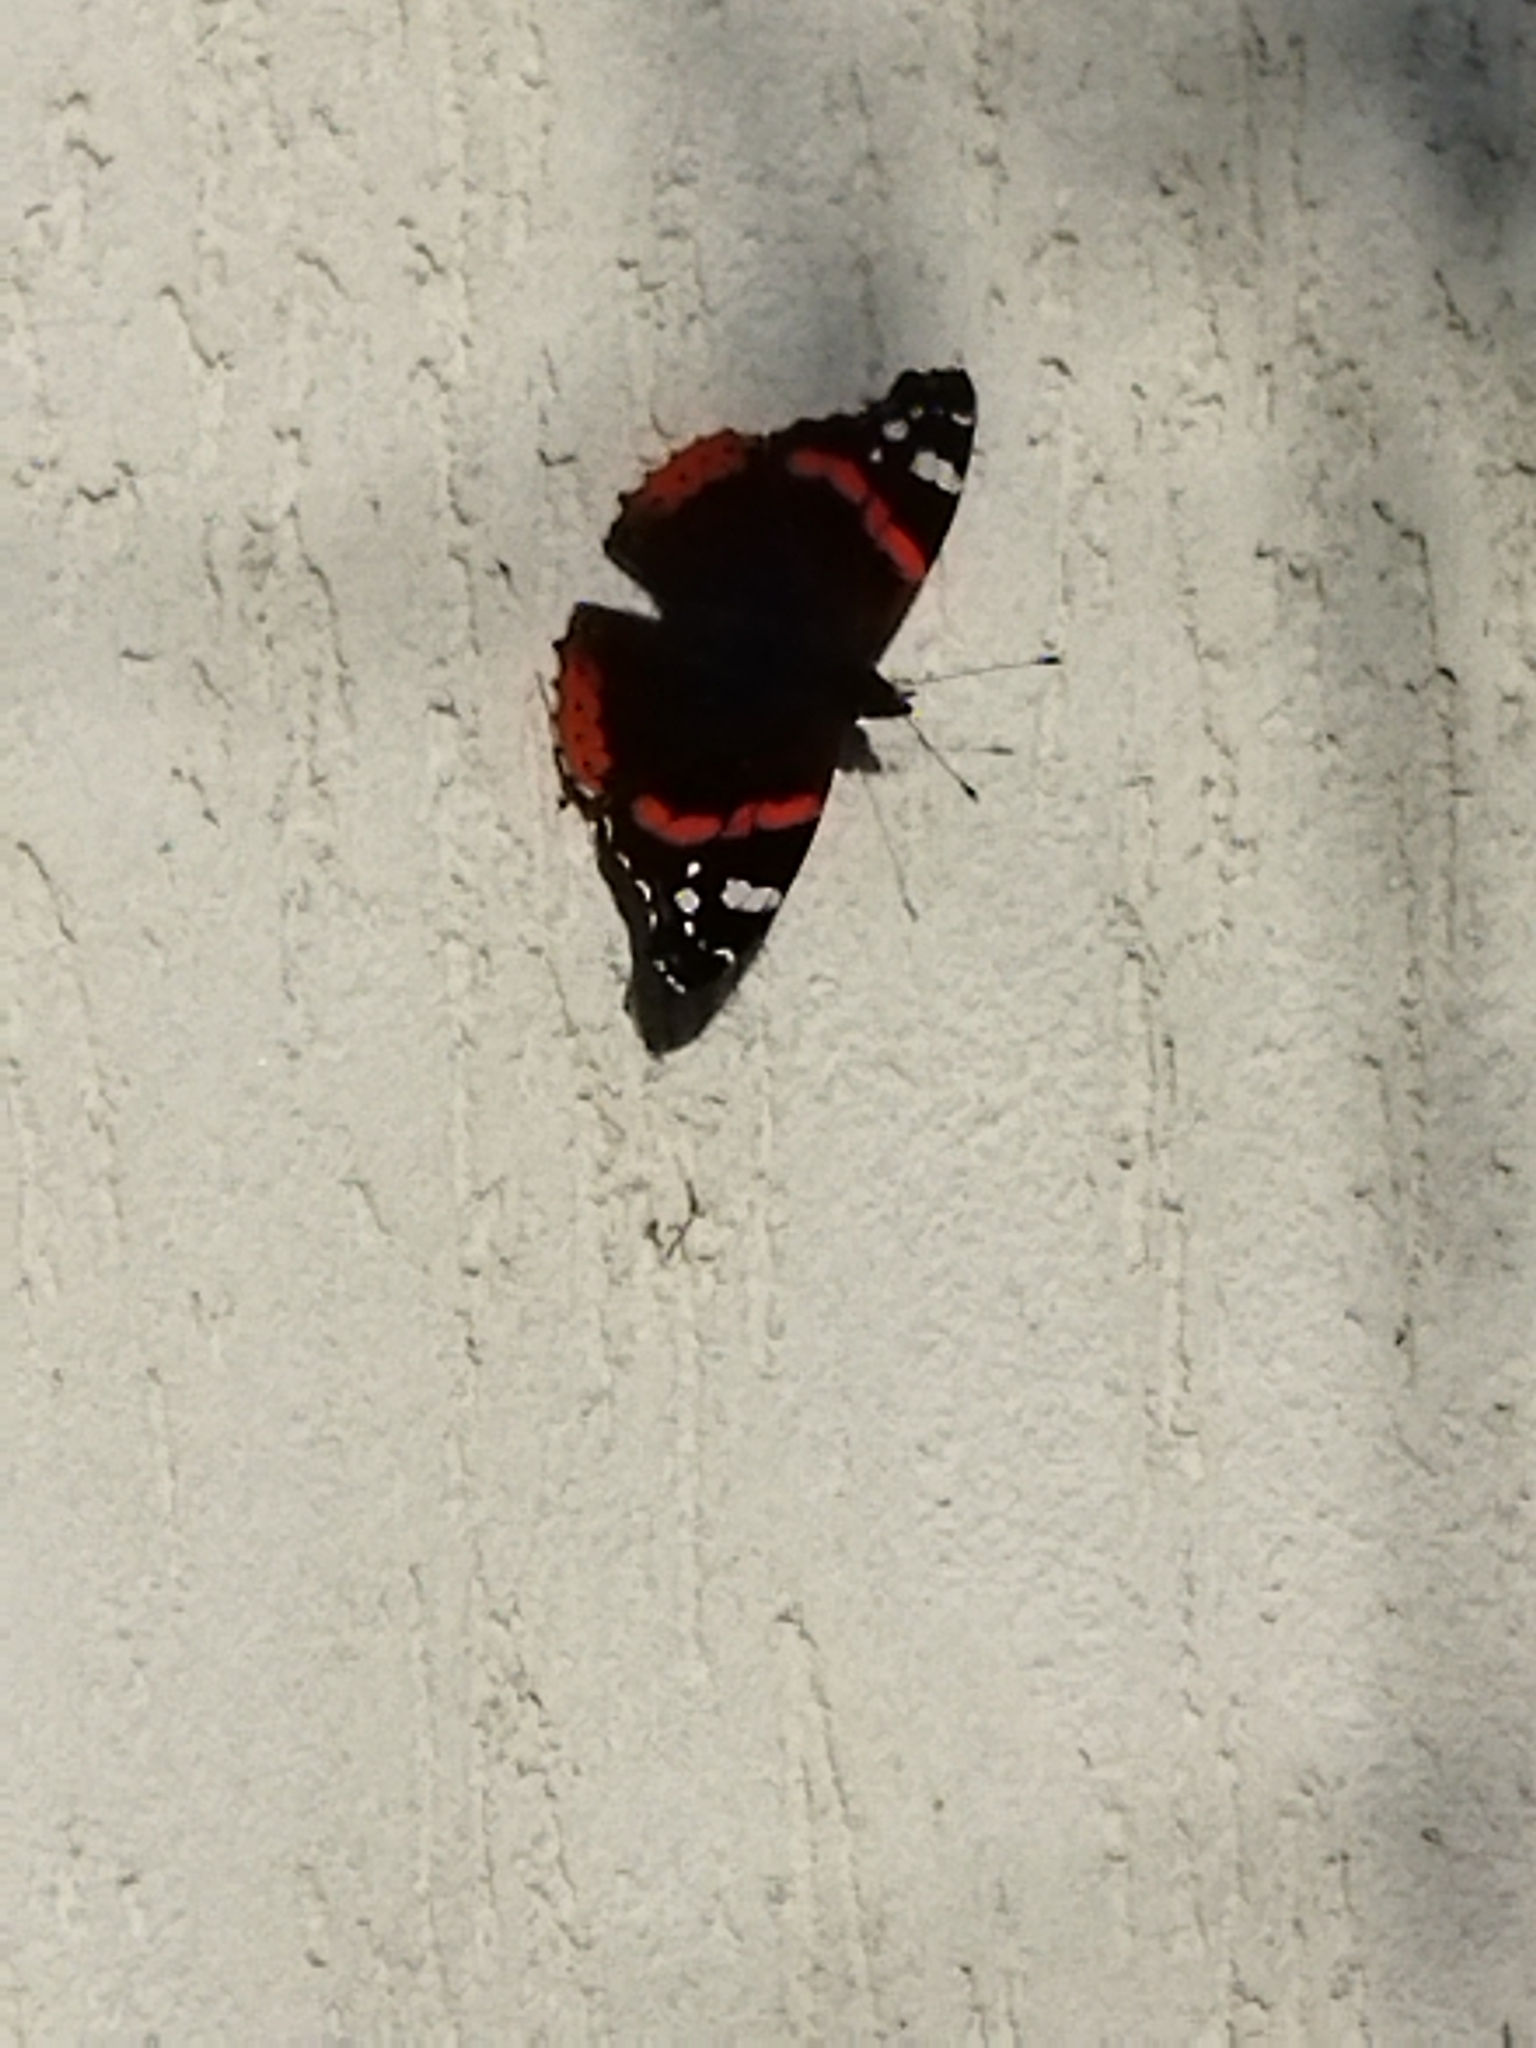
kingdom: Animalia
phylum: Arthropoda
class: Insecta
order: Lepidoptera
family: Nymphalidae
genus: Vanessa
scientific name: Vanessa atalanta
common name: Red admiral
